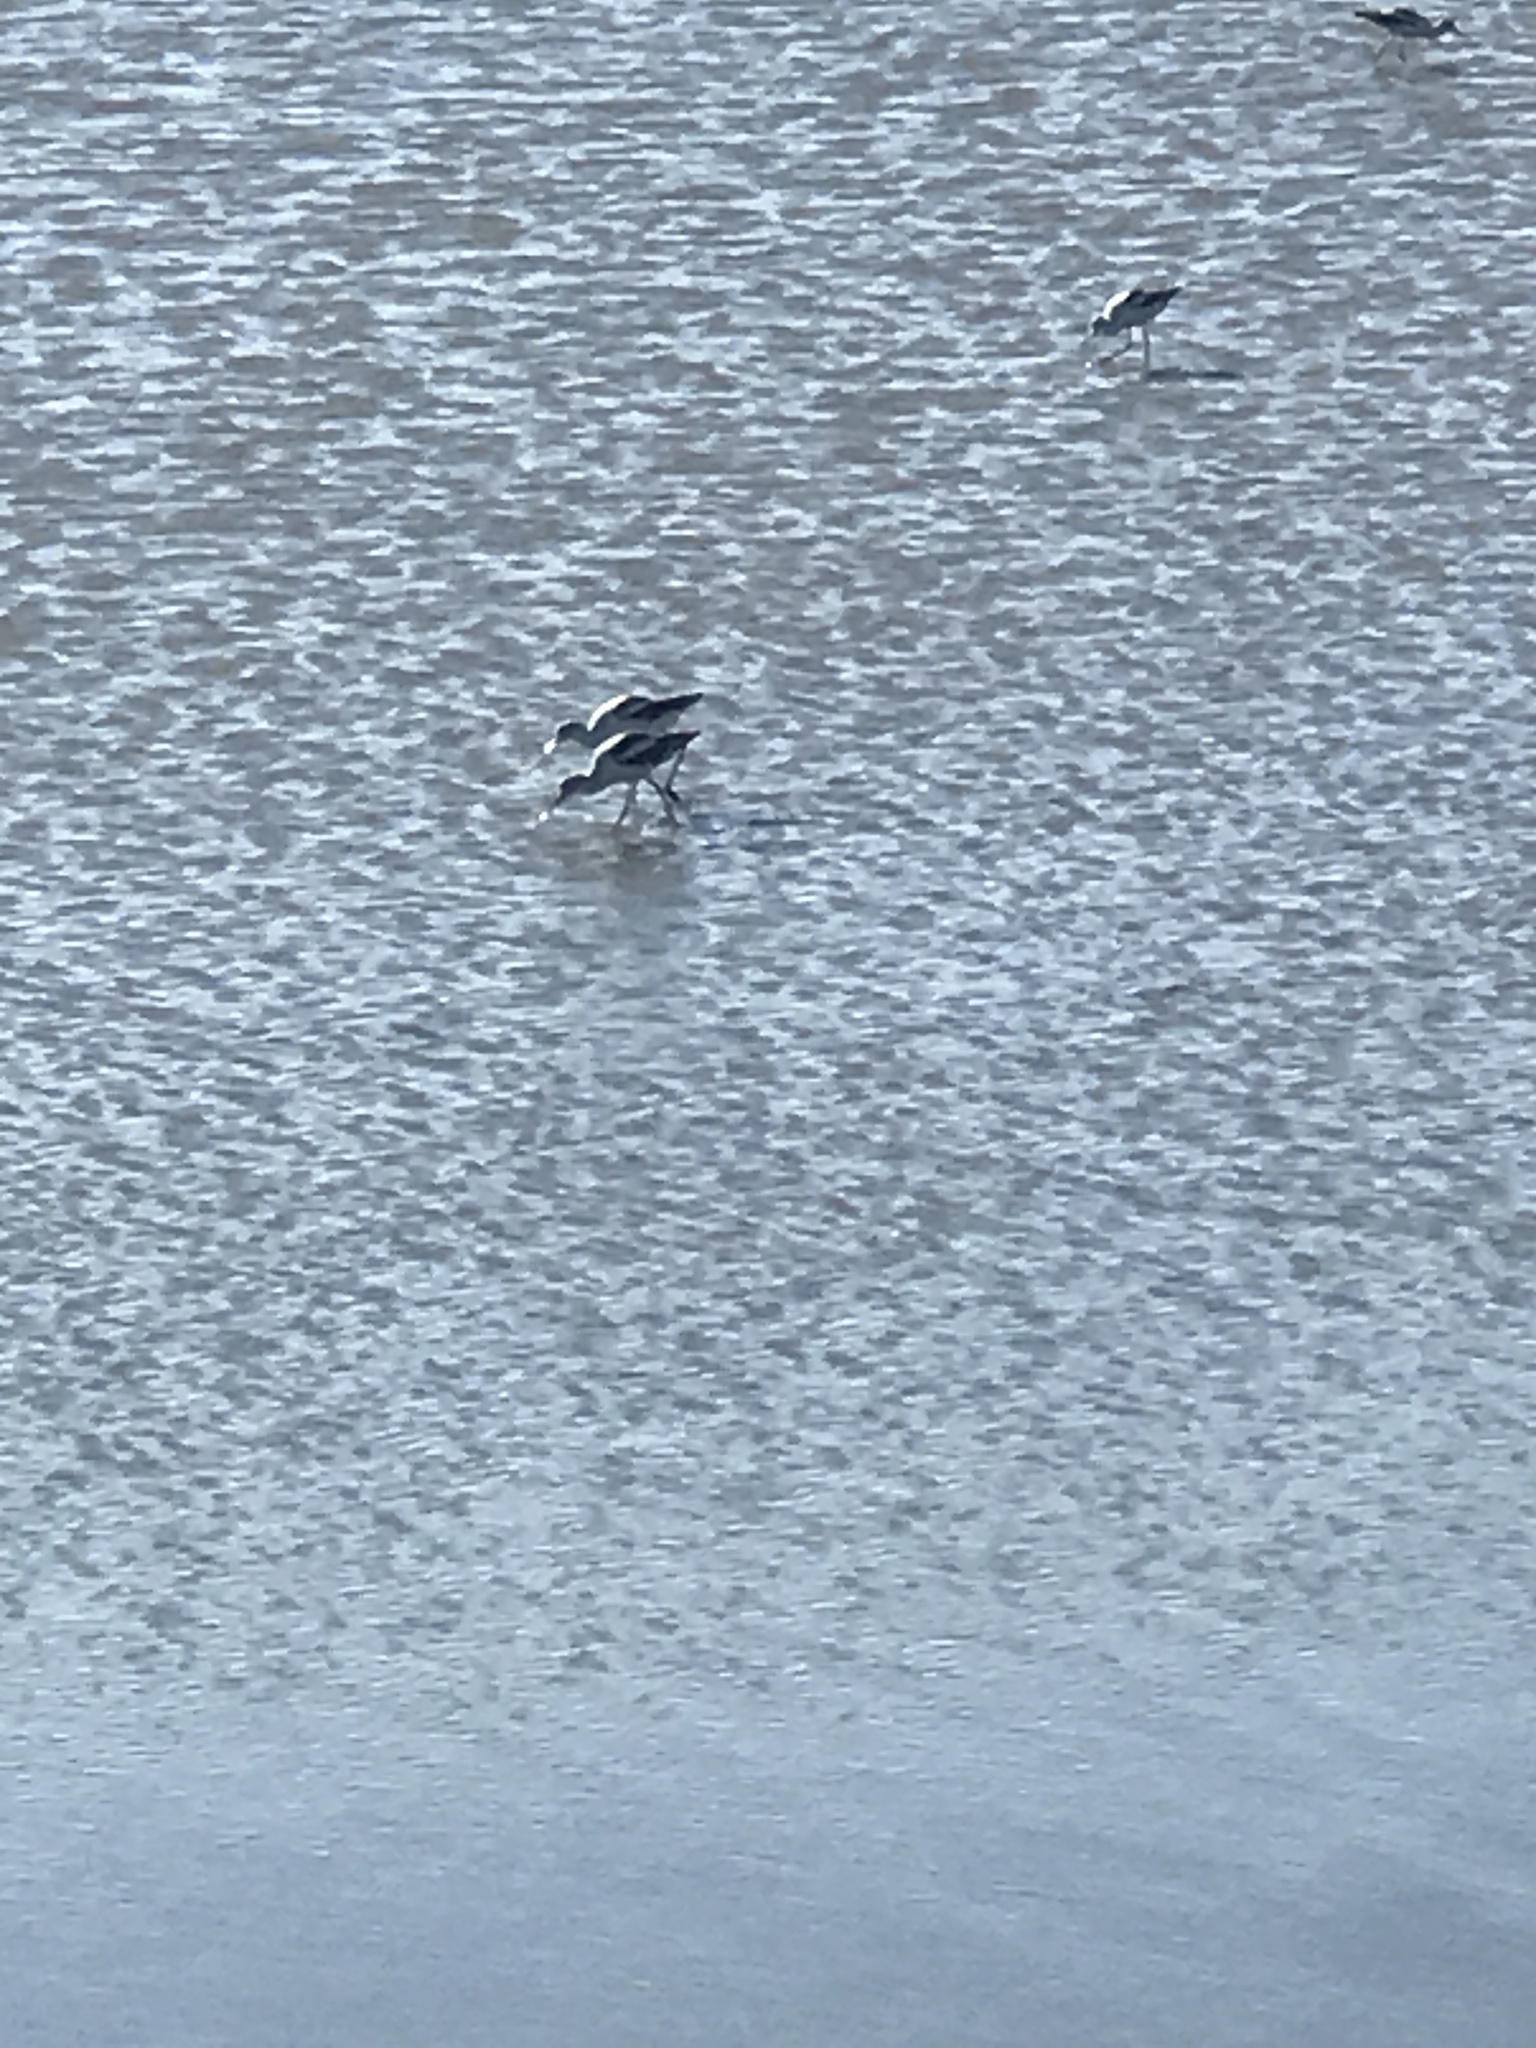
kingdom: Animalia
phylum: Chordata
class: Aves
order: Charadriiformes
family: Recurvirostridae
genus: Recurvirostra
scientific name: Recurvirostra americana
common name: American avocet
